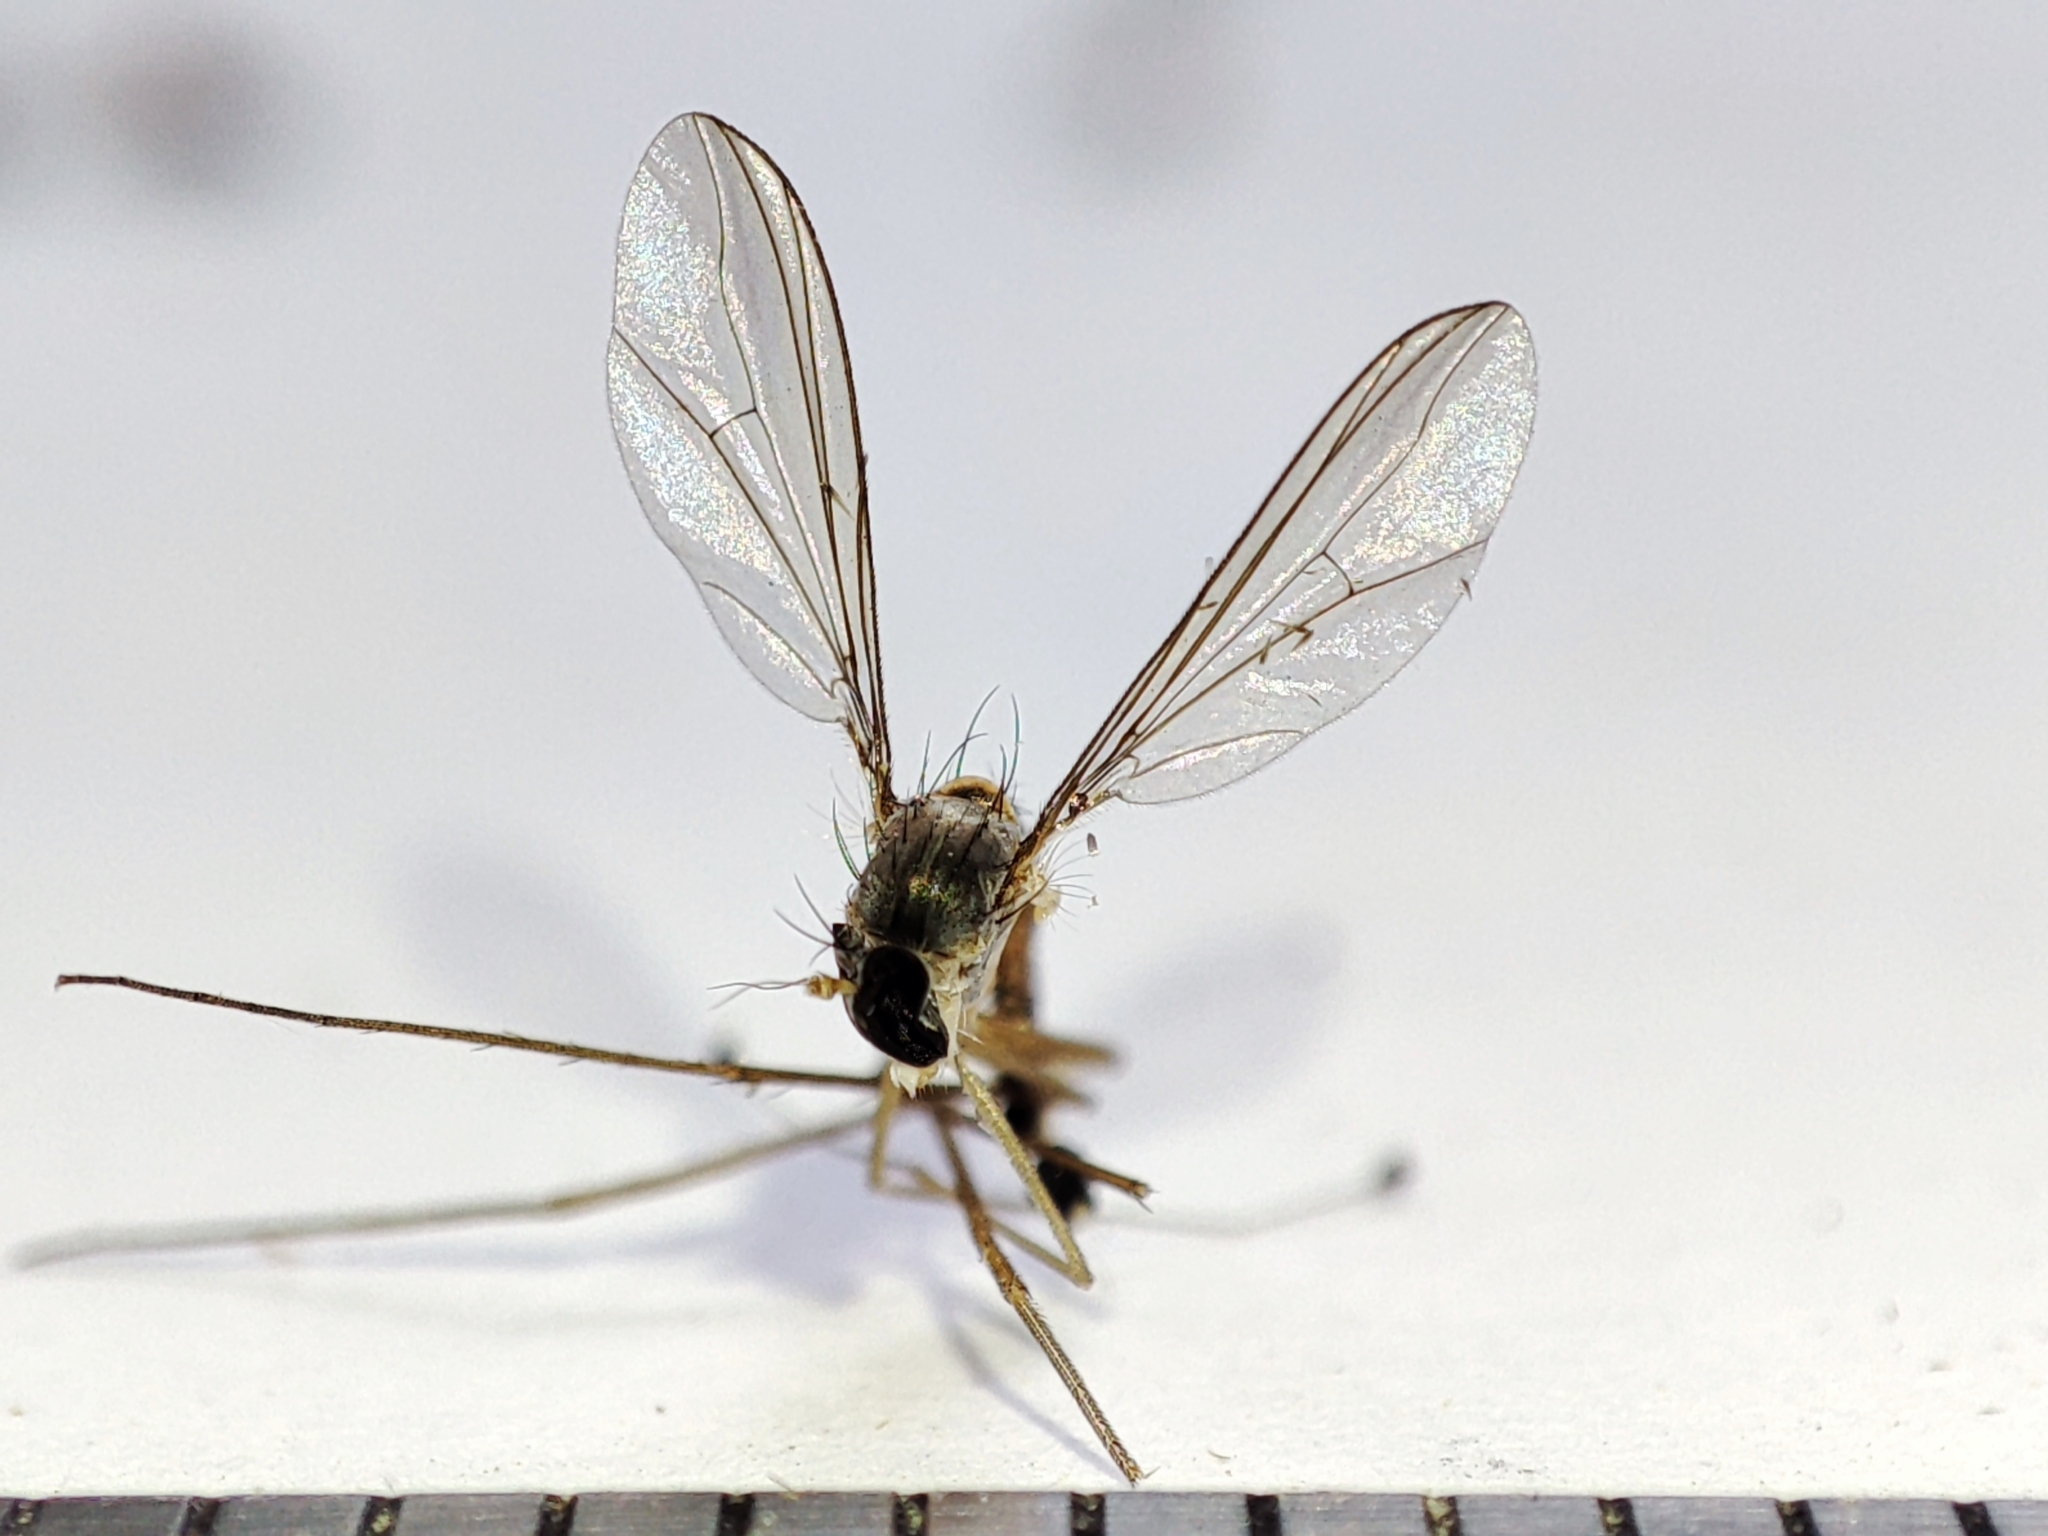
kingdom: Animalia
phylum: Arthropoda
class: Insecta
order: Diptera
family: Dolichopodidae
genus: Neurigona
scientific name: Neurigona quadrifasciata
